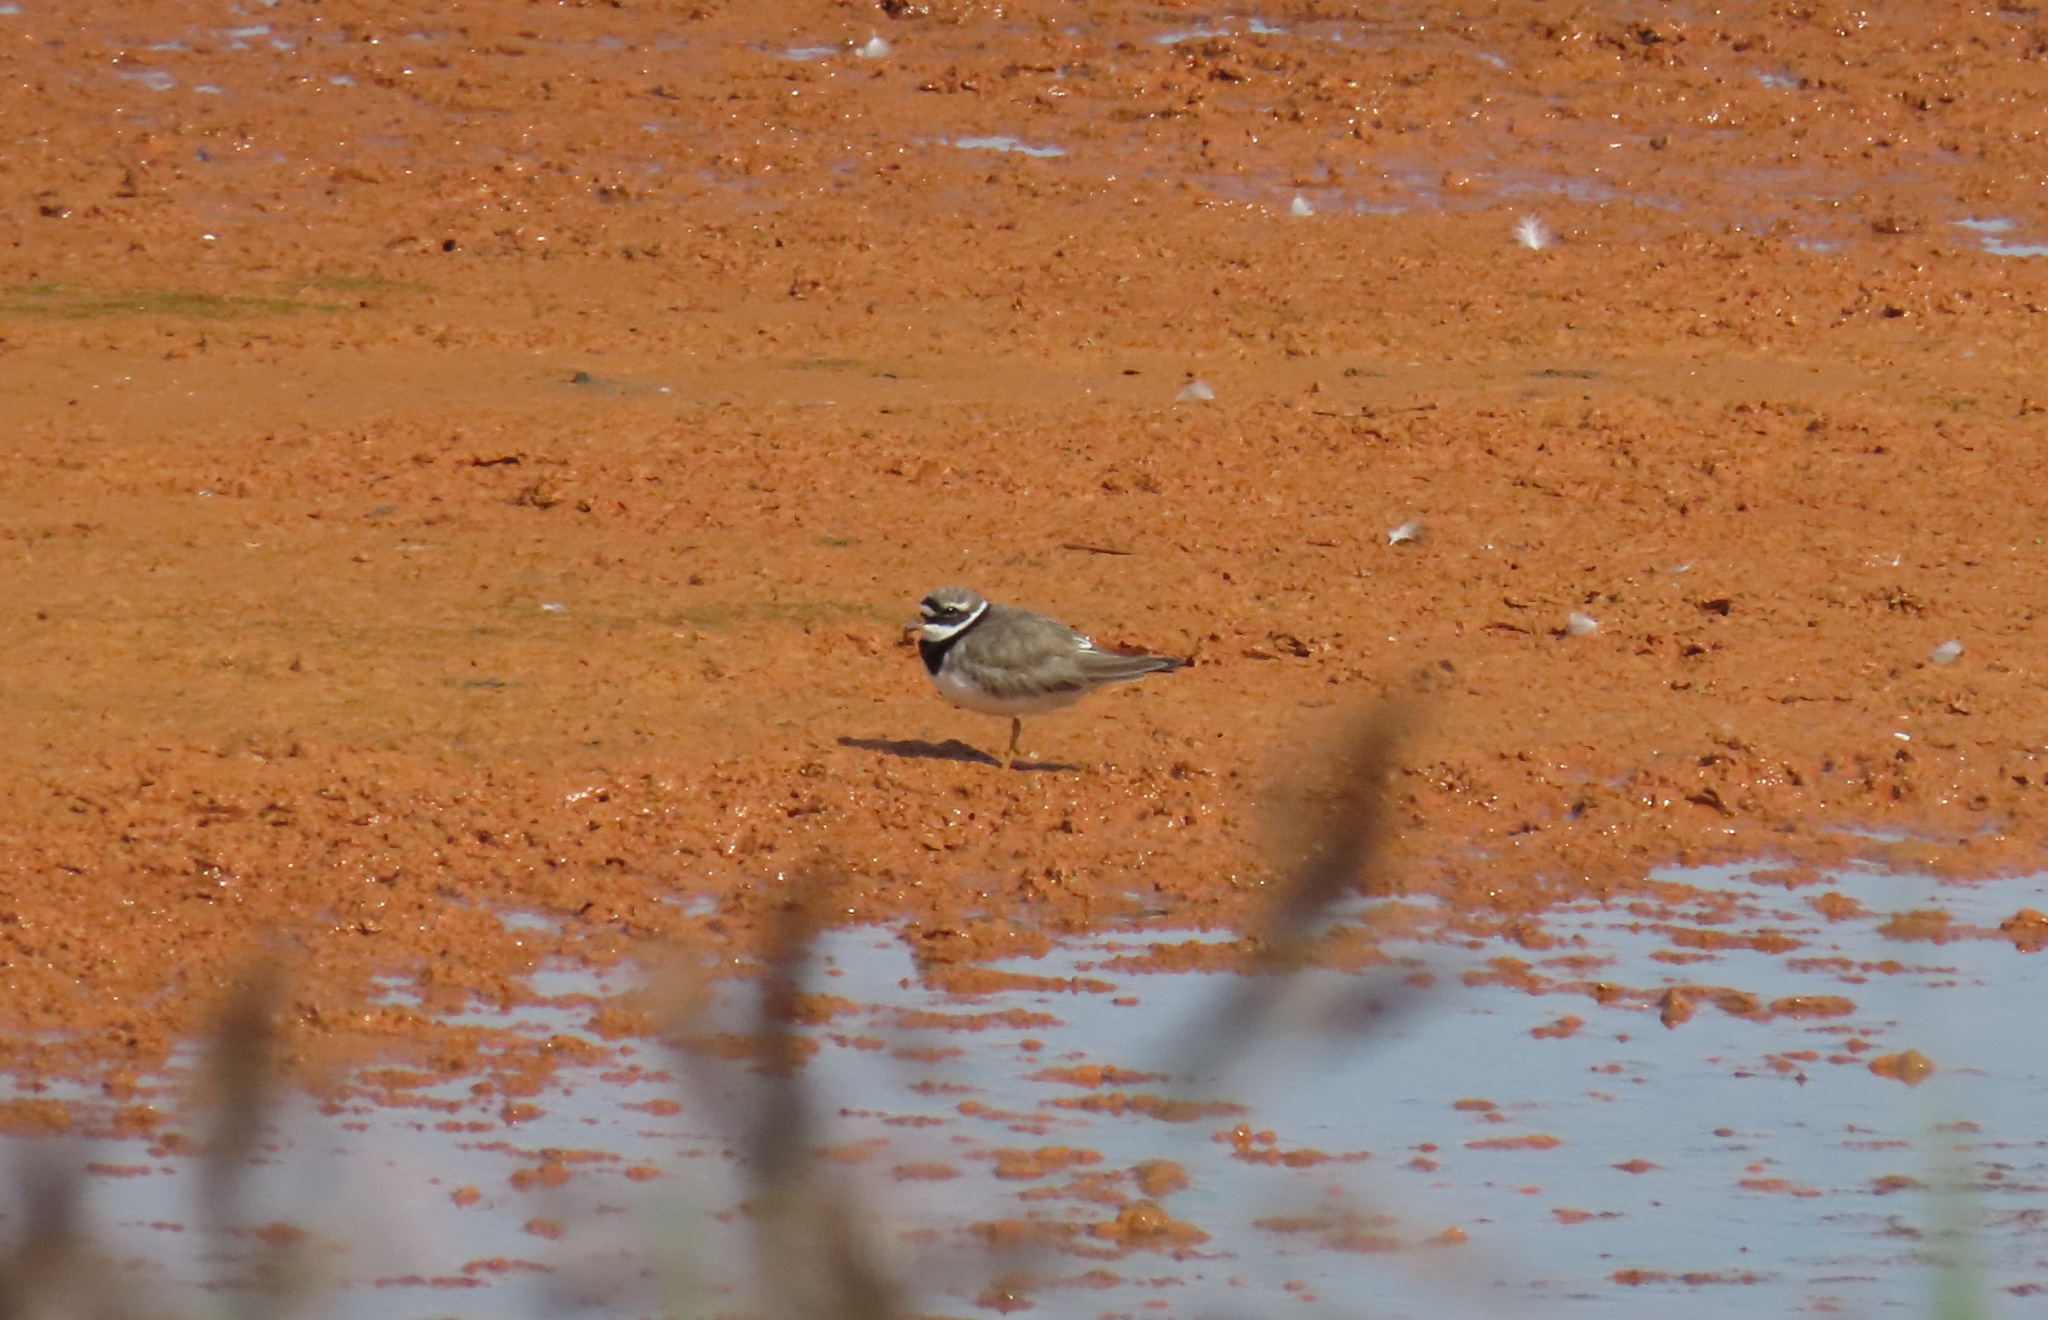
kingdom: Animalia
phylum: Chordata
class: Aves
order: Charadriiformes
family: Charadriidae
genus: Charadrius
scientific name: Charadrius hiaticula
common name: Common ringed plover
